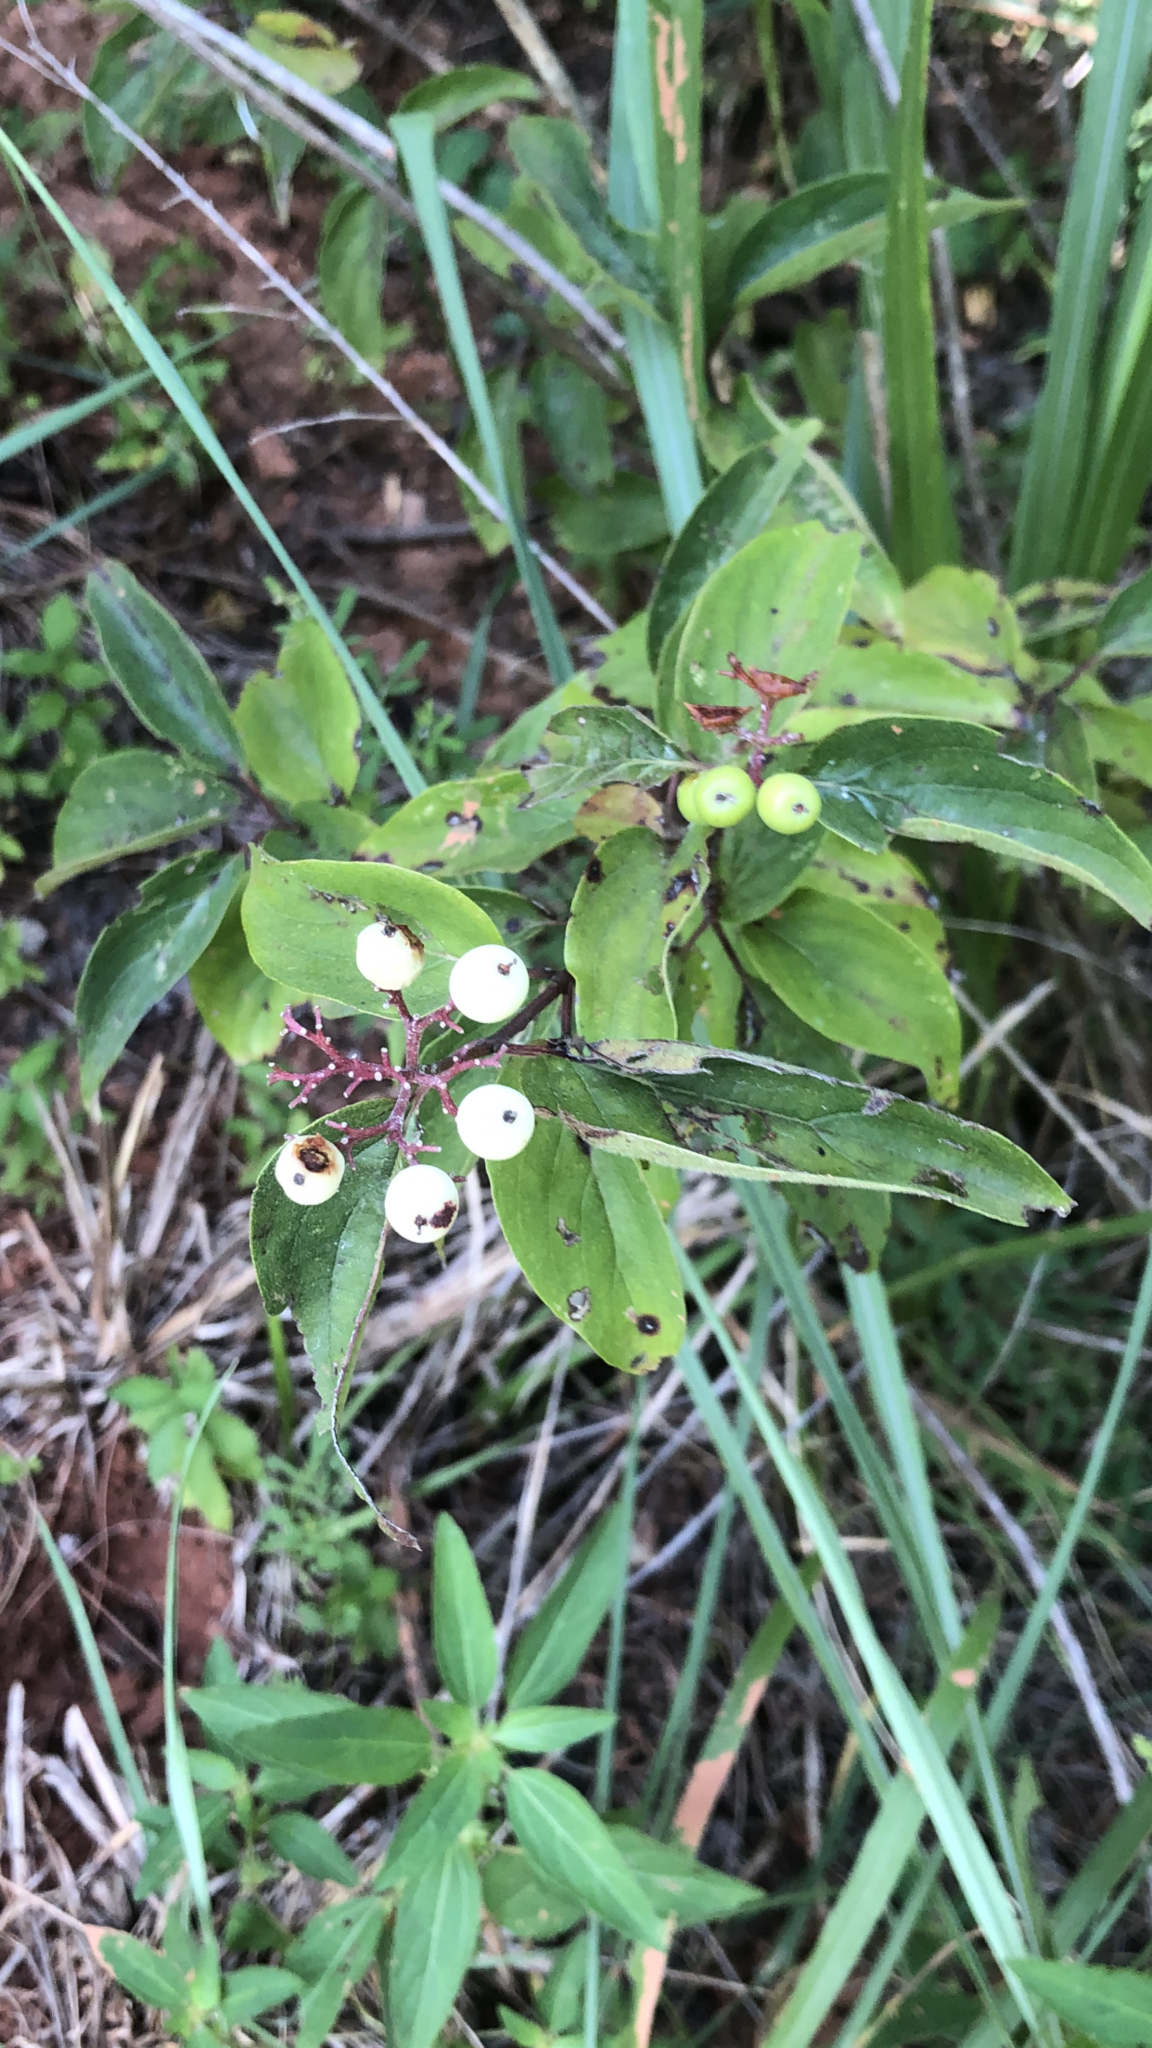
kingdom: Plantae
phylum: Tracheophyta
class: Magnoliopsida
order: Cornales
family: Cornaceae
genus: Cornus
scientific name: Cornus drummondii
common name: Rough-leaf dogwood
